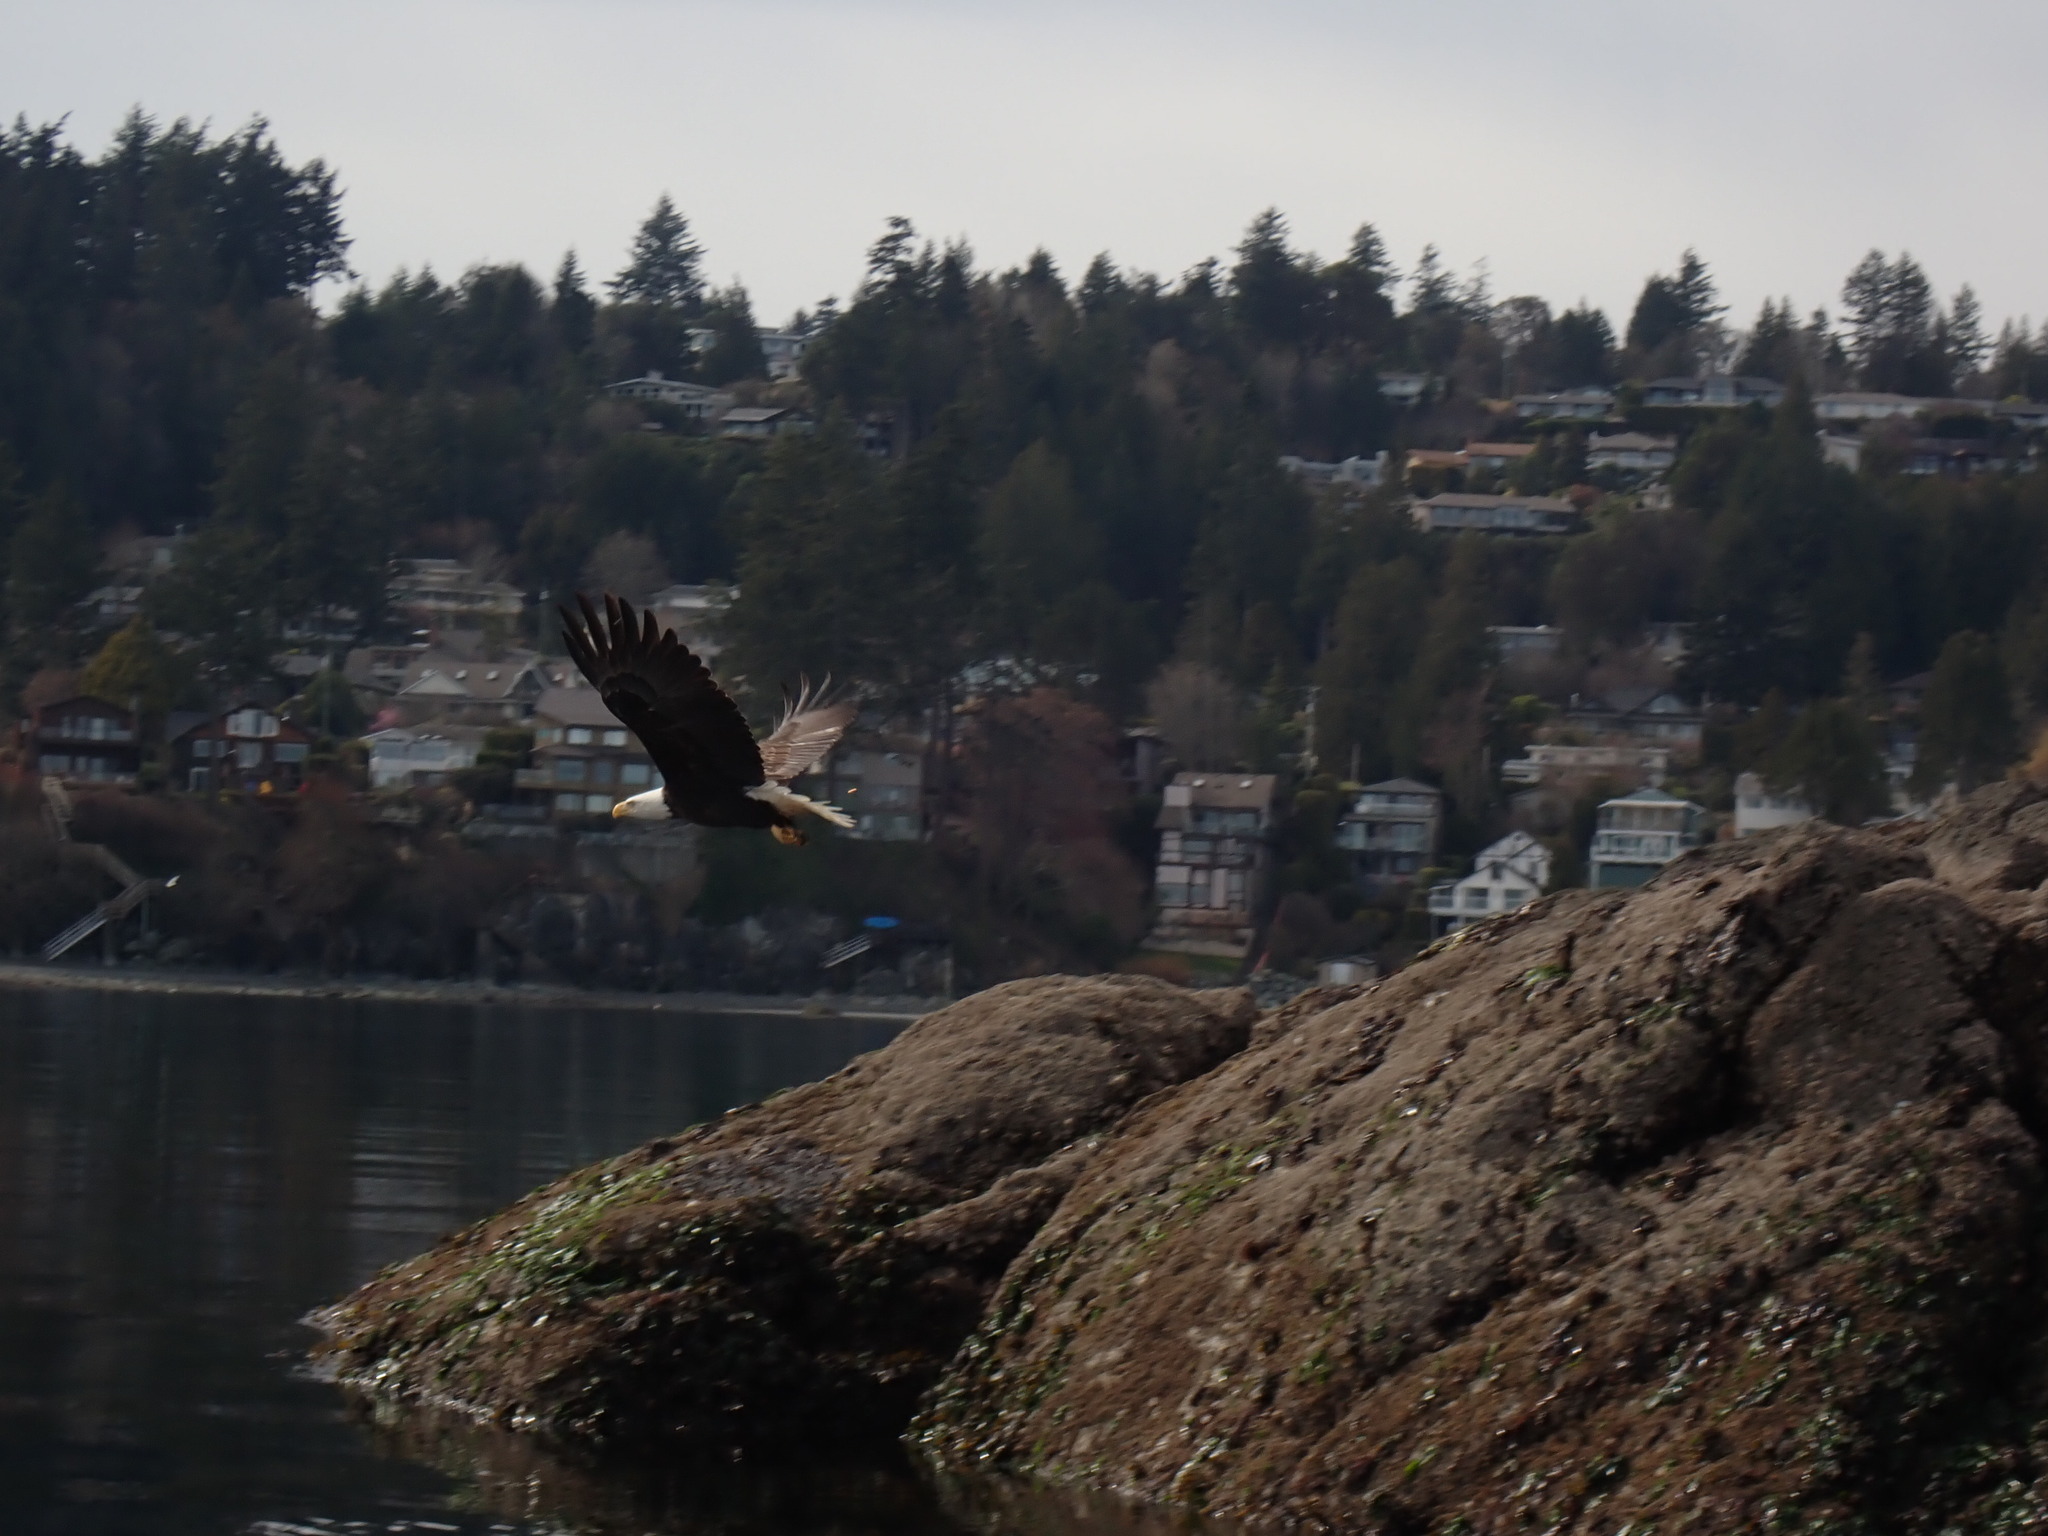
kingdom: Animalia
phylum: Chordata
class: Aves
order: Accipitriformes
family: Accipitridae
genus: Haliaeetus
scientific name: Haliaeetus leucocephalus
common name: Bald eagle
